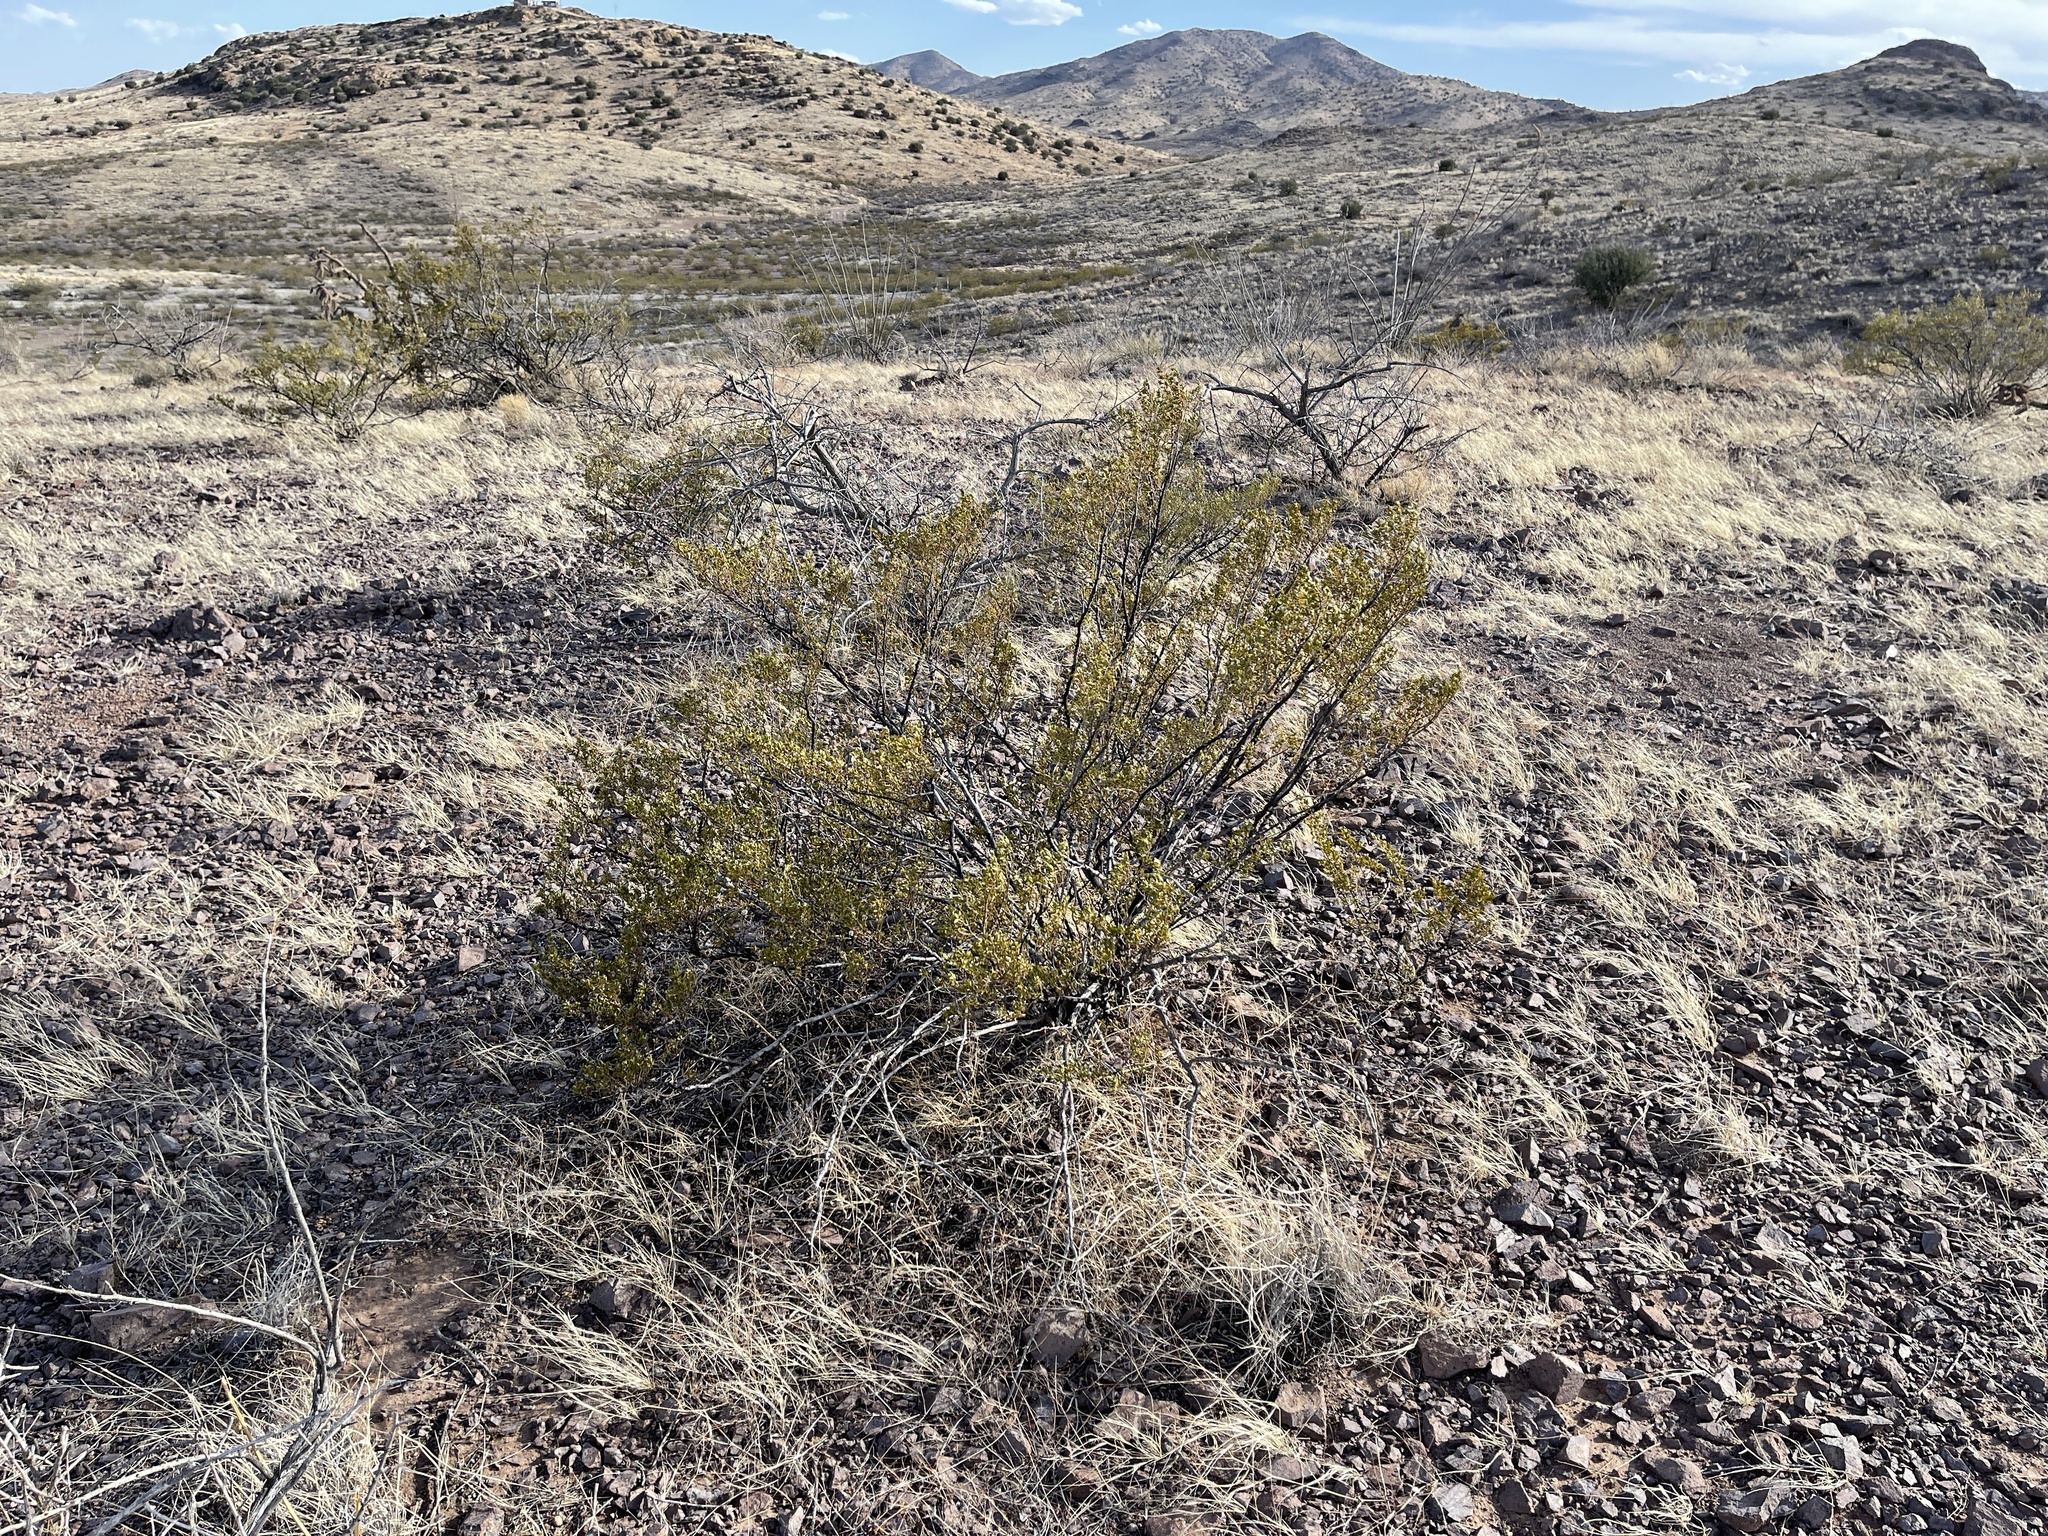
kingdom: Plantae
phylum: Tracheophyta
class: Magnoliopsida
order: Zygophyllales
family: Zygophyllaceae
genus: Larrea
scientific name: Larrea tridentata
